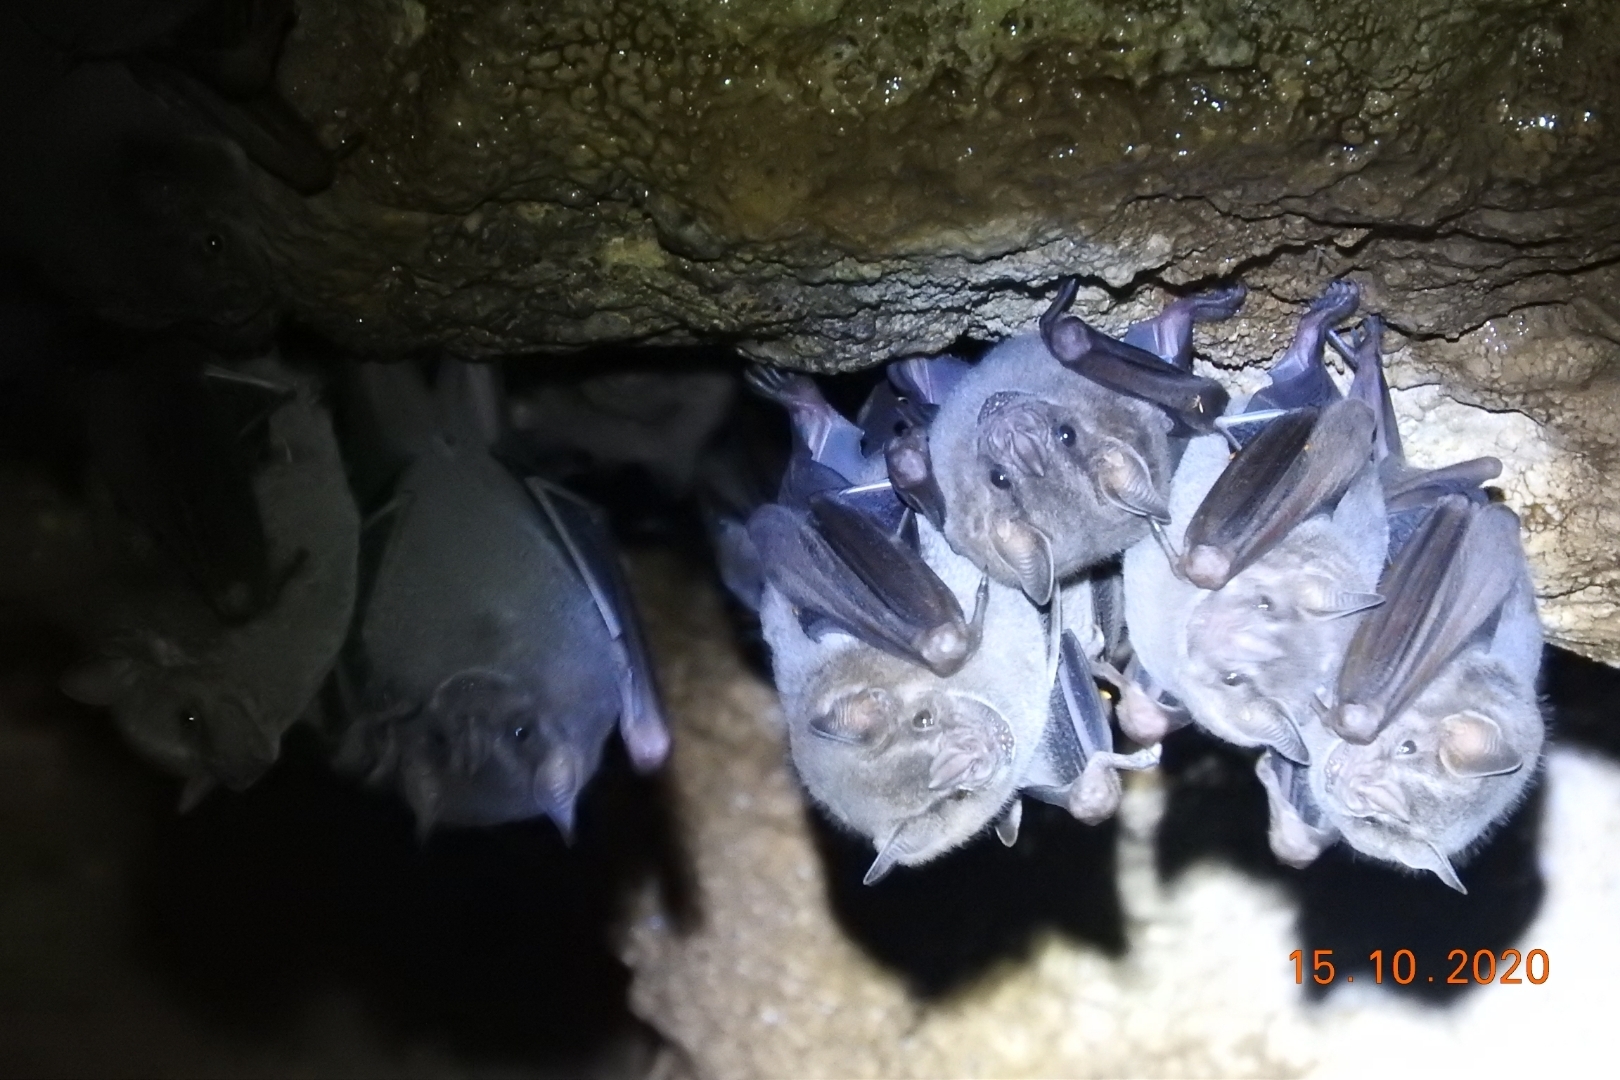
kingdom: Animalia
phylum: Chordata
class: Mammalia
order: Chiroptera
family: Phyllostomidae
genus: Artibeus
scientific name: Artibeus jamaicensis
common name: Jamaican fruit-eating bat
